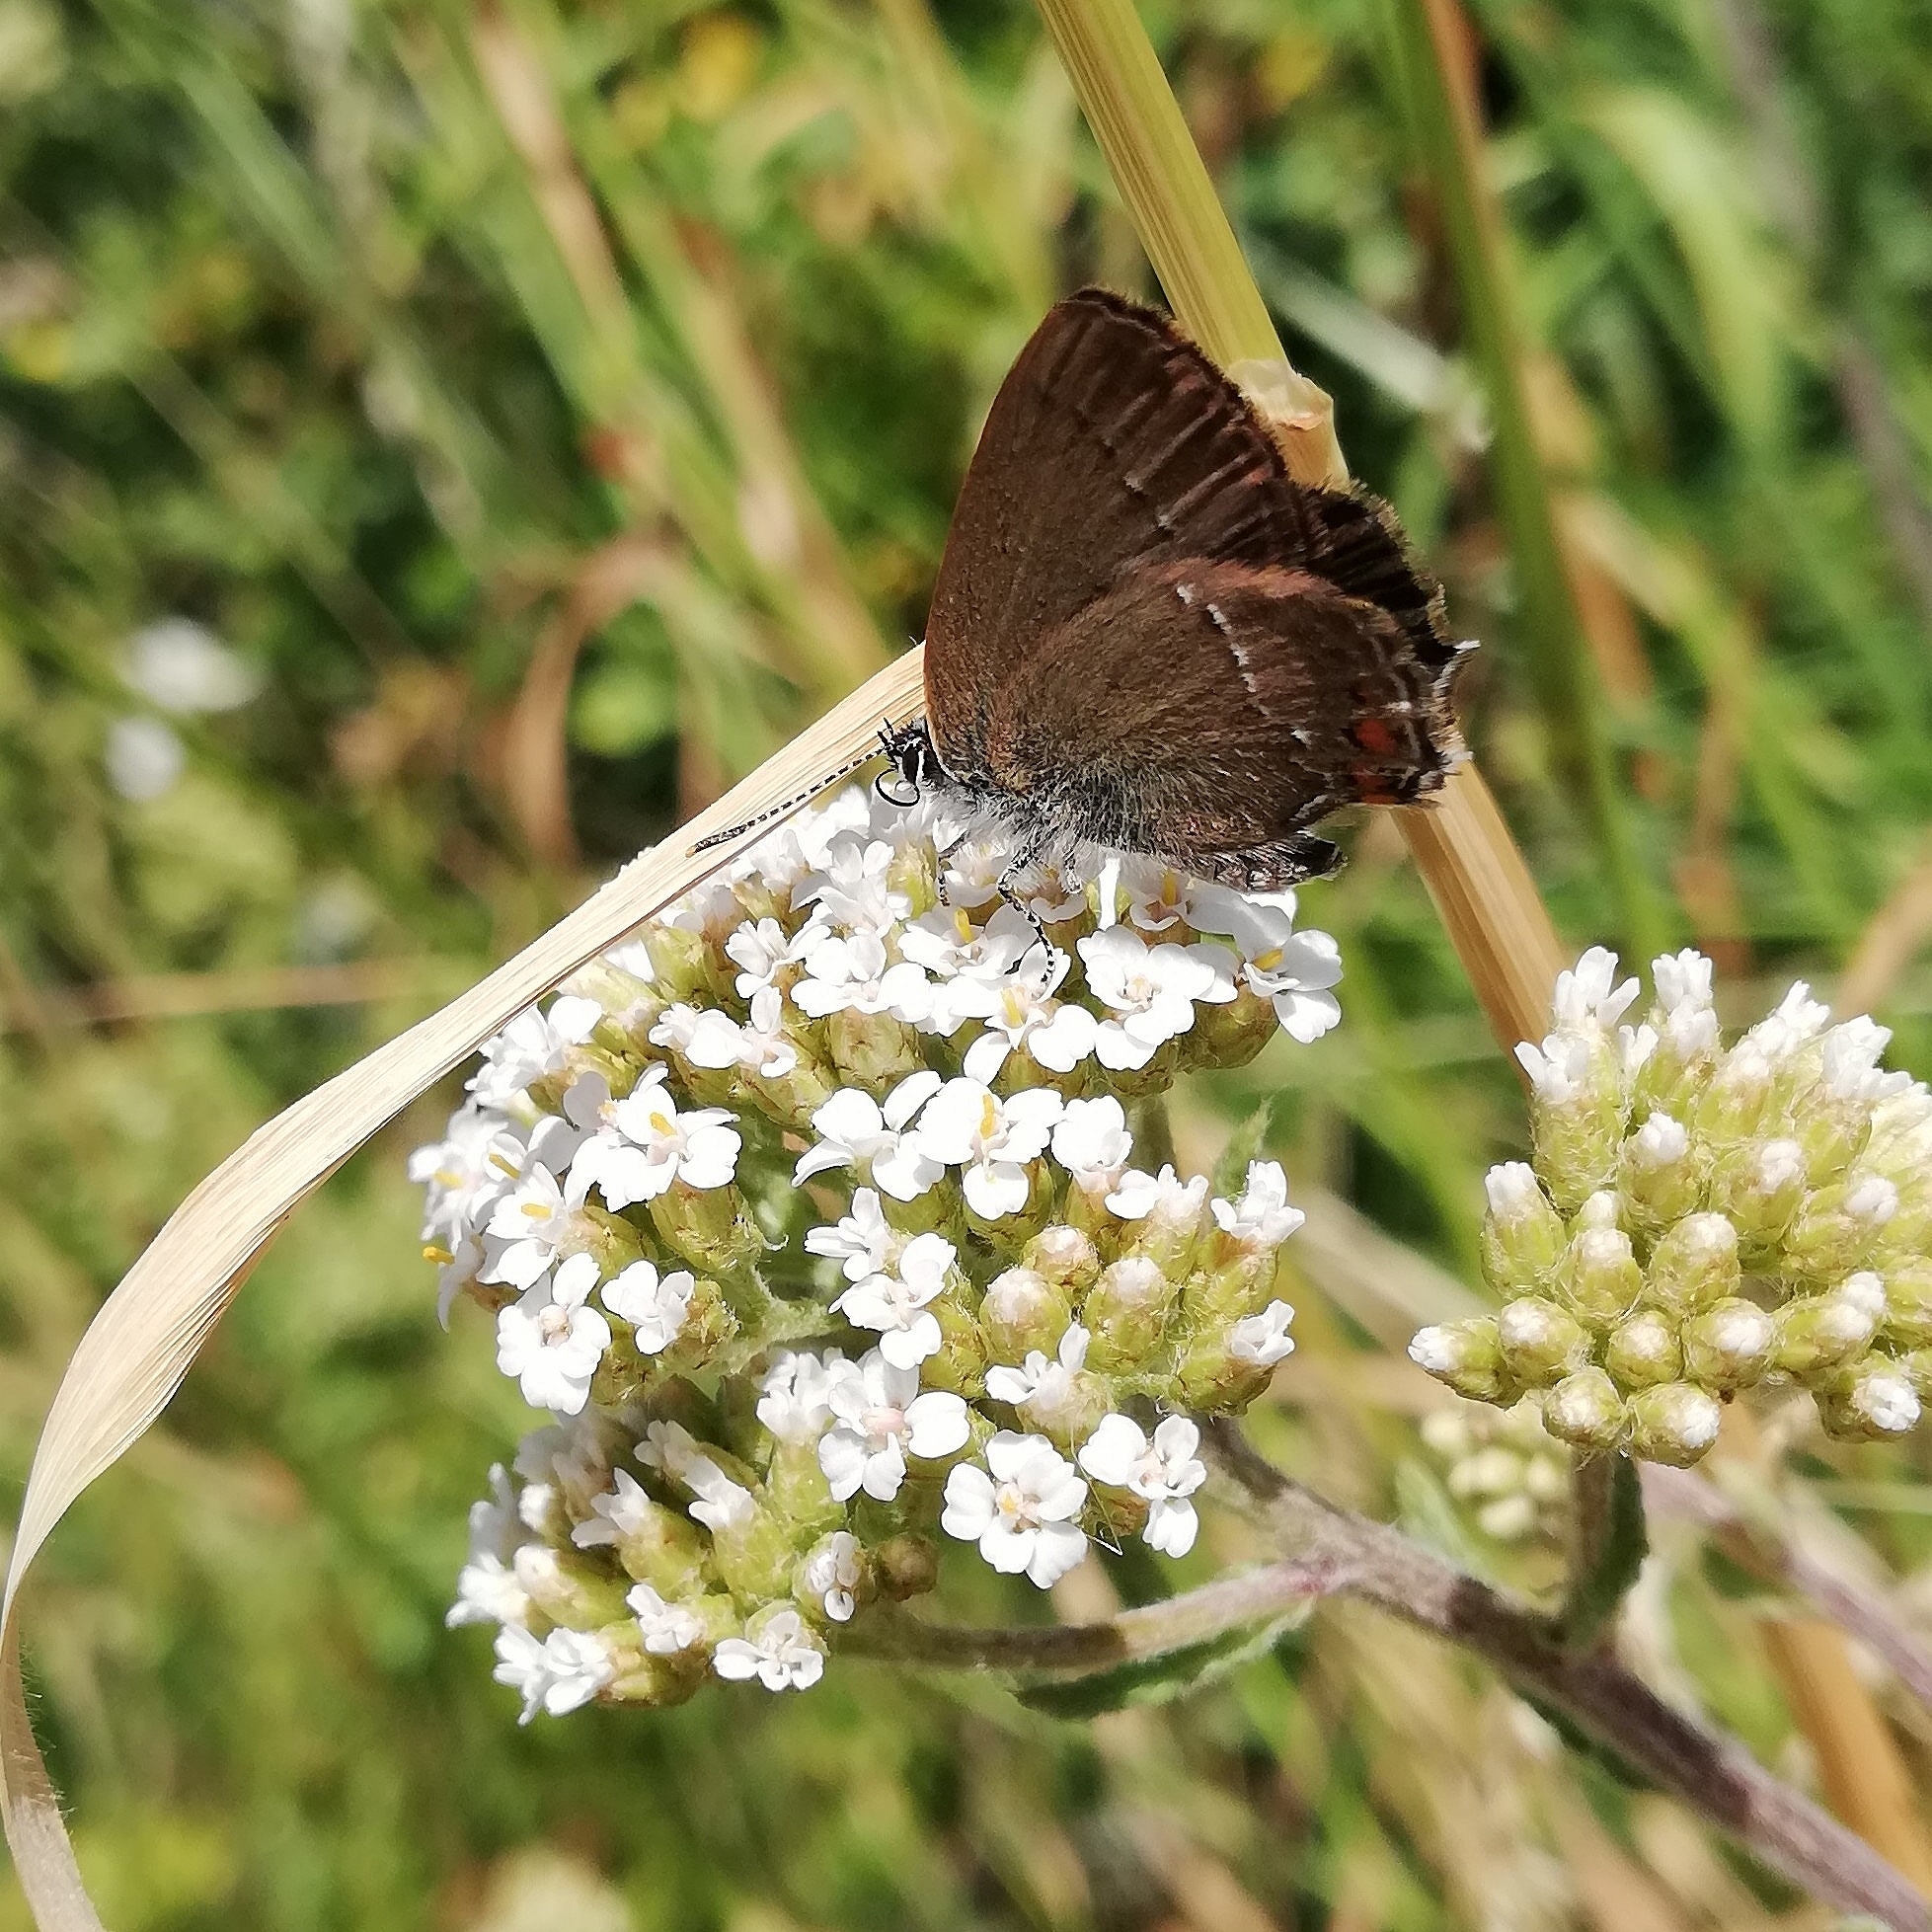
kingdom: Animalia
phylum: Arthropoda
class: Insecta
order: Lepidoptera
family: Lycaenidae
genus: Strymon
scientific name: Strymon acaciae
